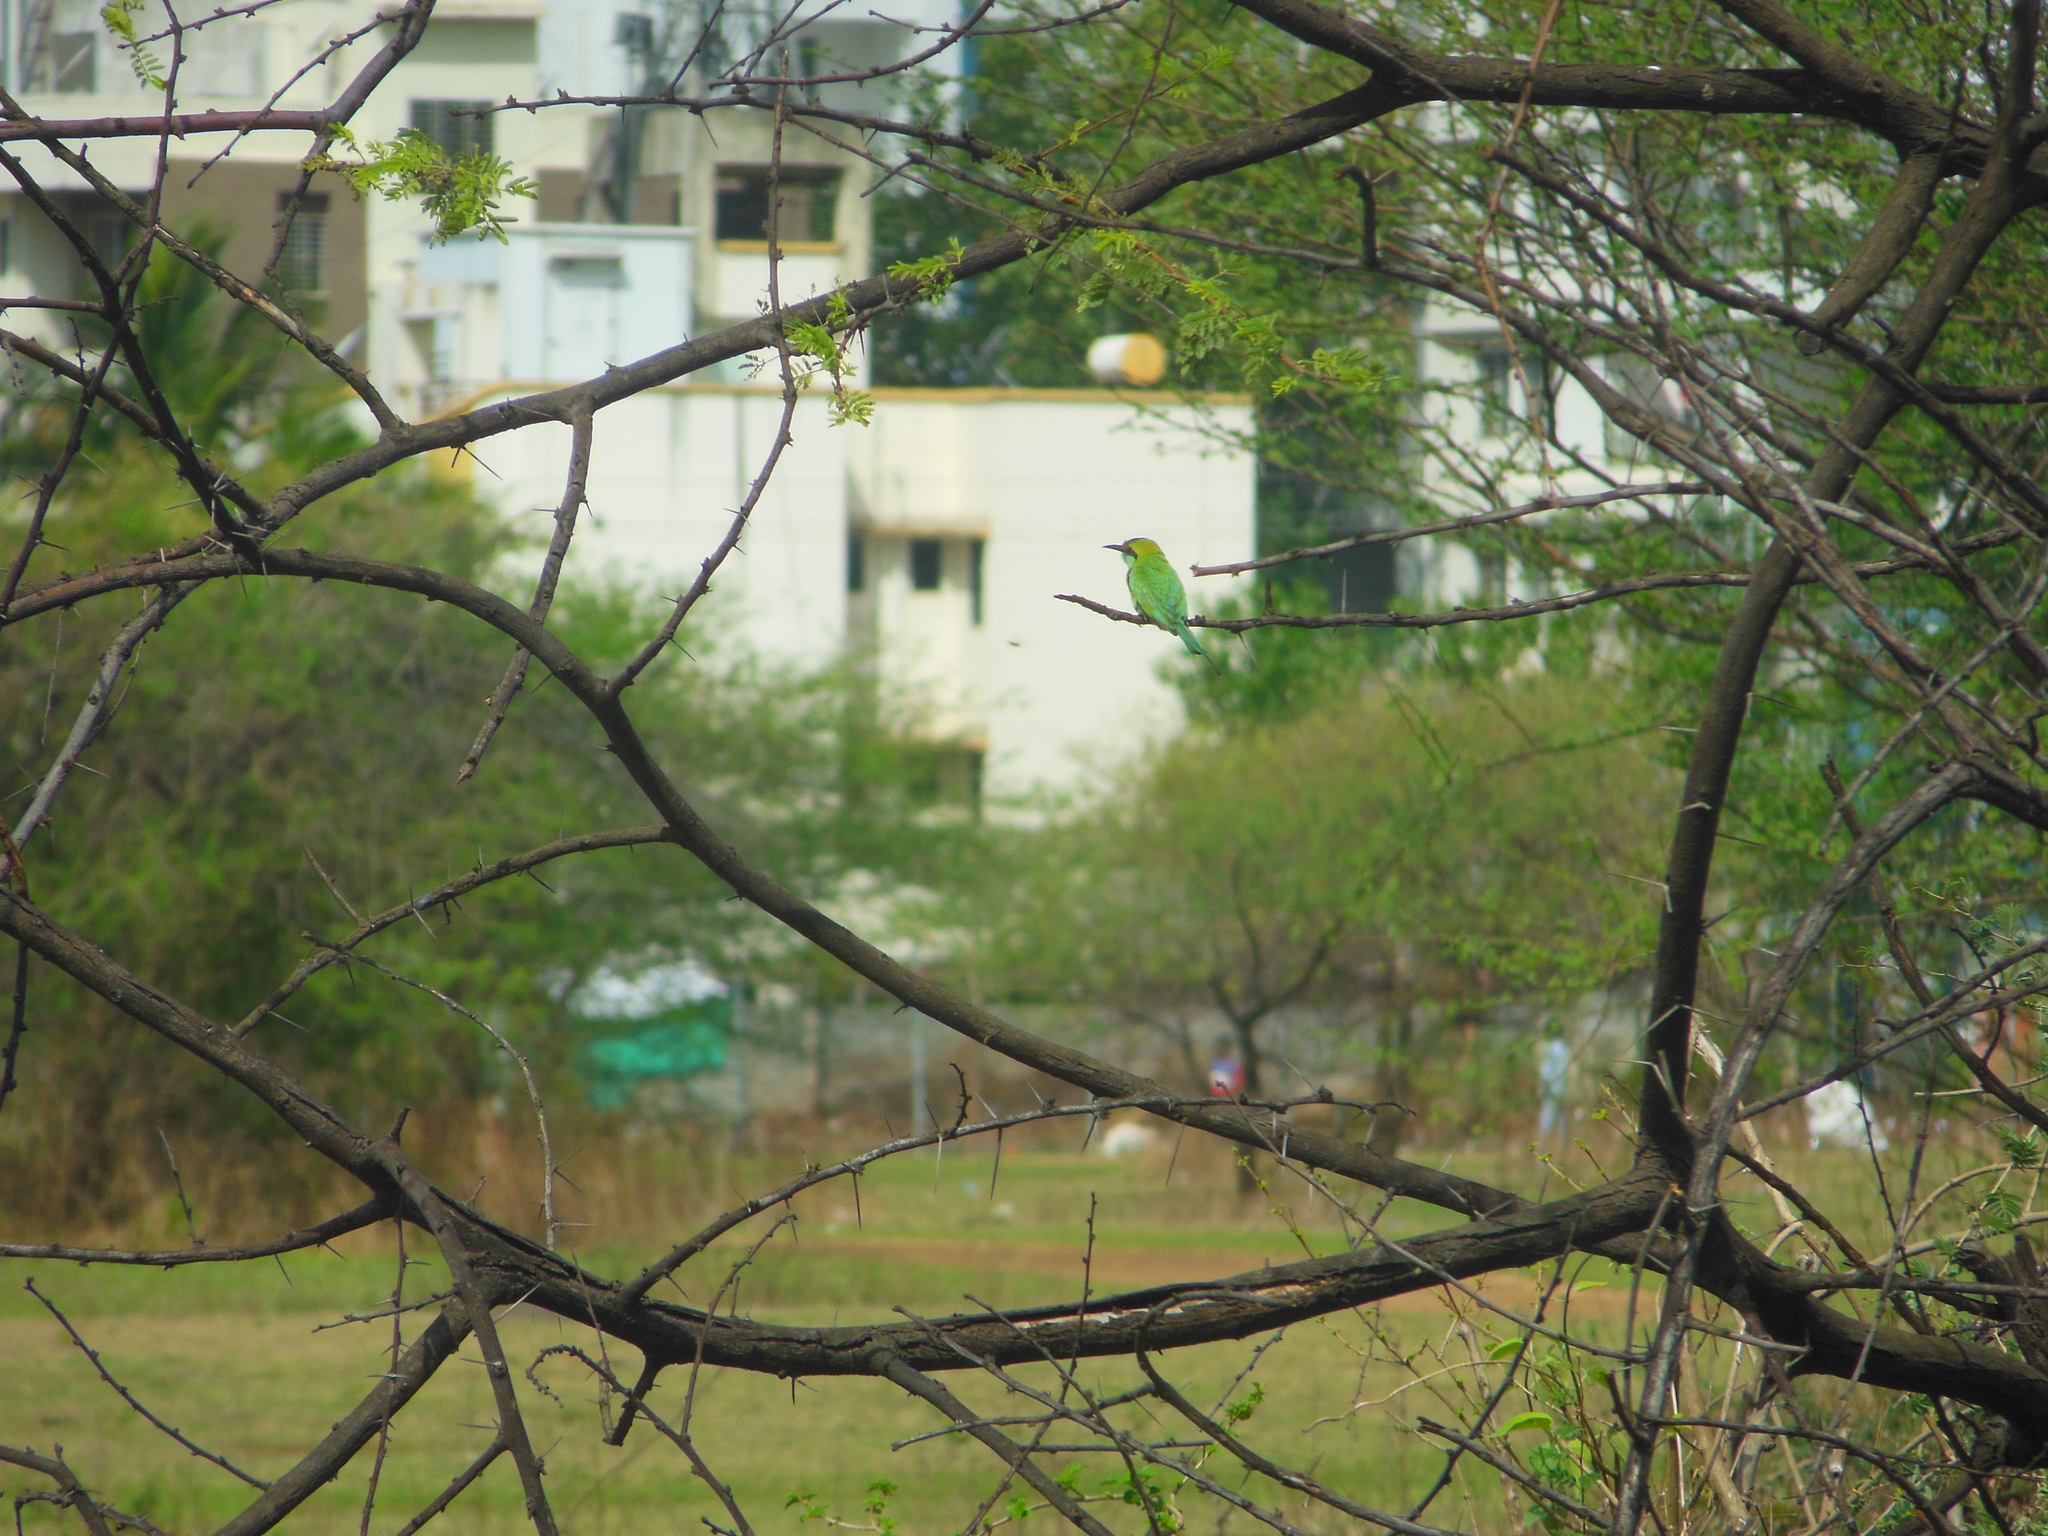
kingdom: Animalia
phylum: Chordata
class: Aves
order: Coraciiformes
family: Meropidae
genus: Merops
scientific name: Merops orientalis
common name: Green bee-eater
